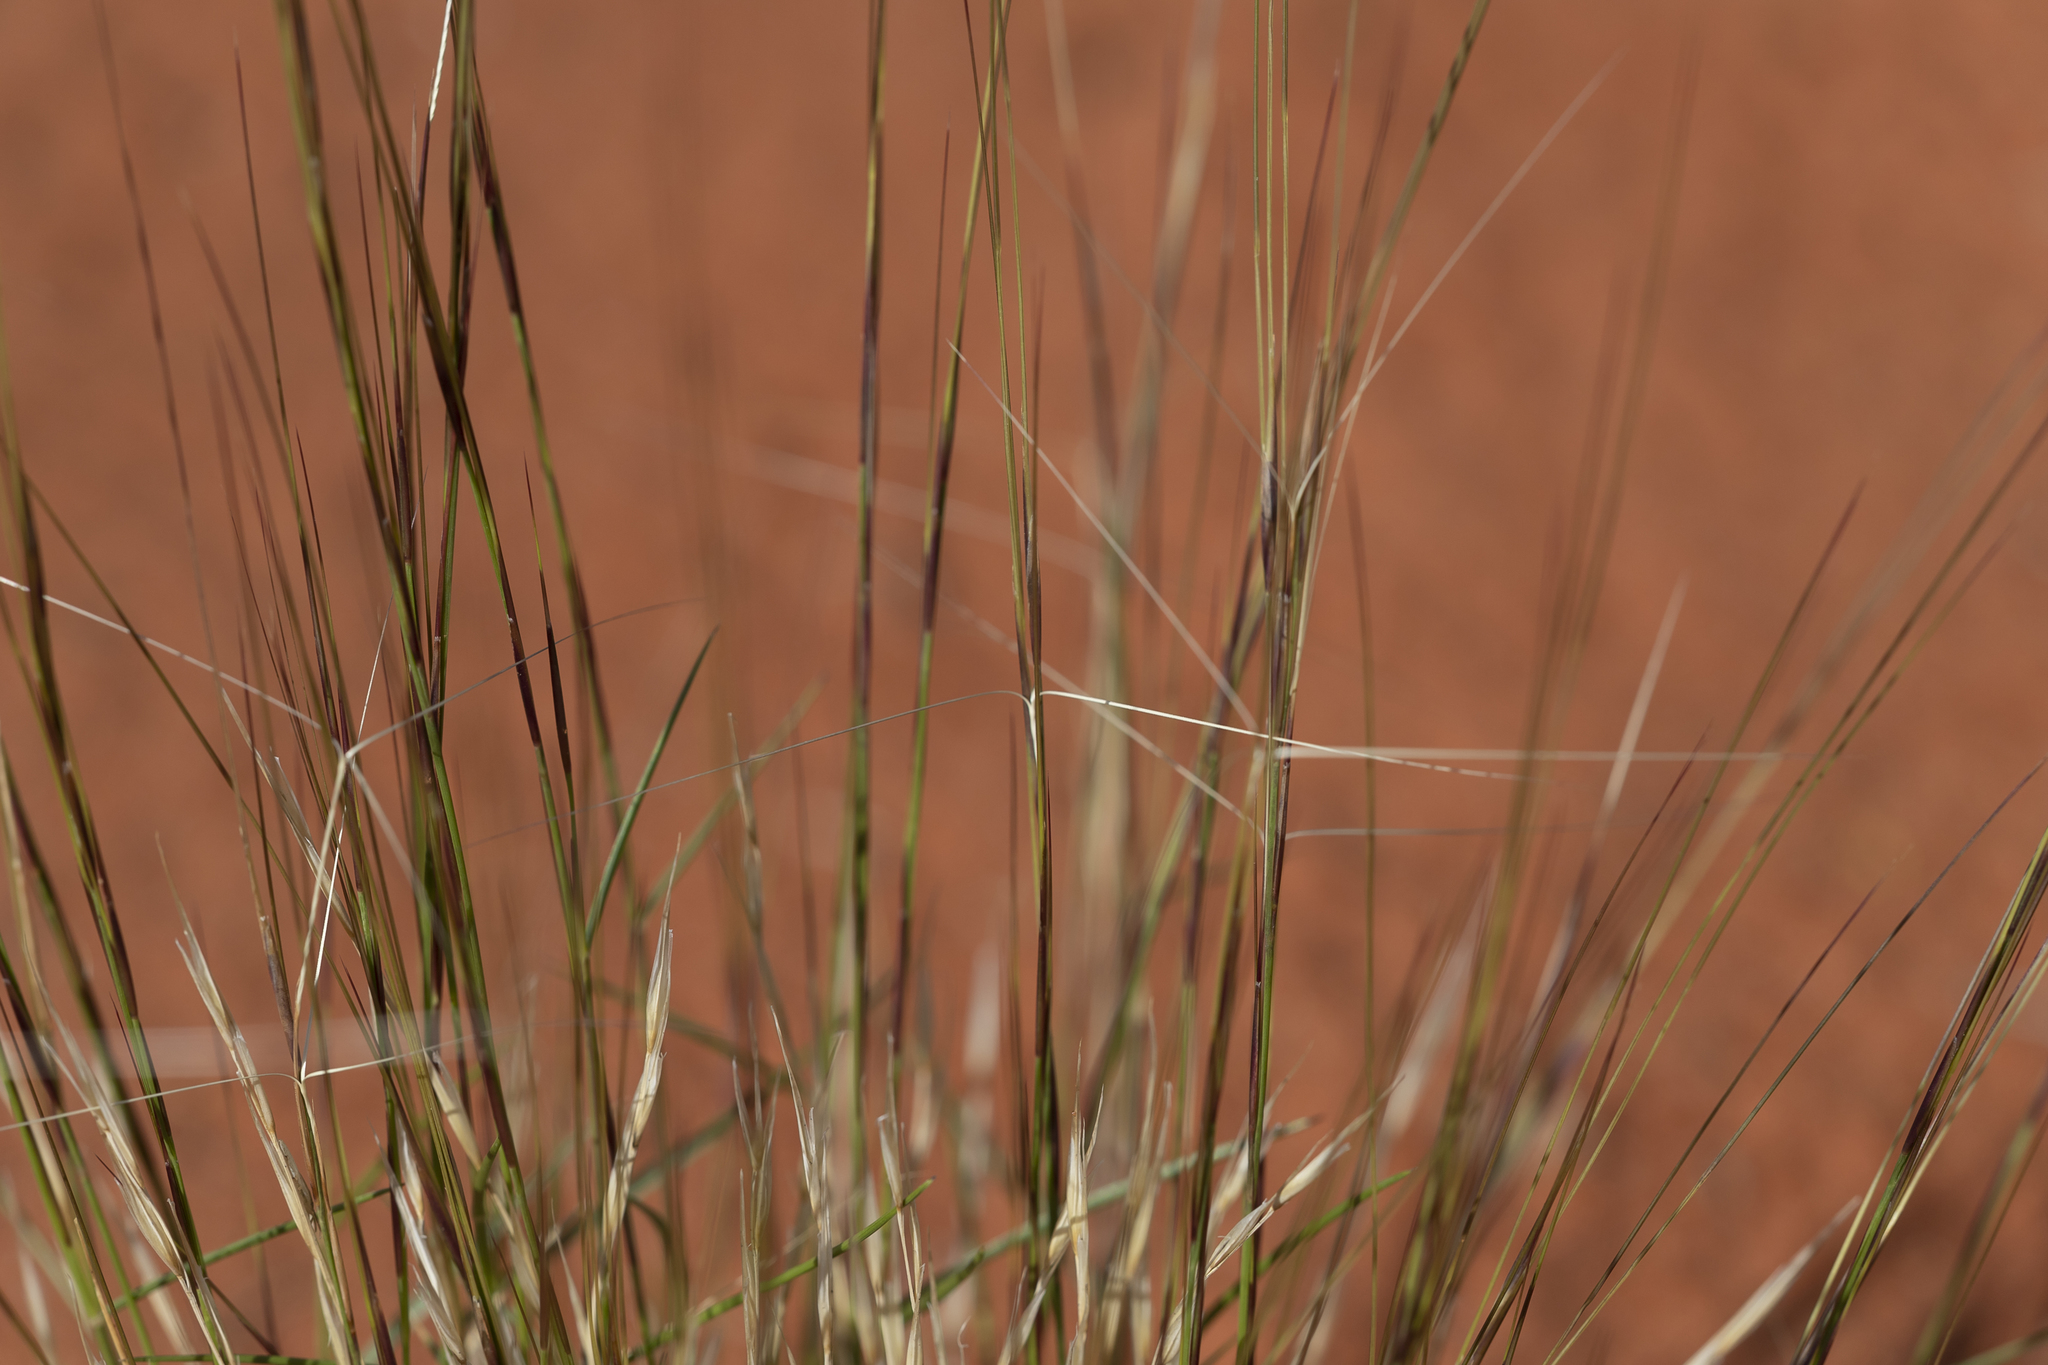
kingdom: Plantae
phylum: Tracheophyta
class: Liliopsida
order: Poales
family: Poaceae
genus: Aristida
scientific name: Aristida holathera
